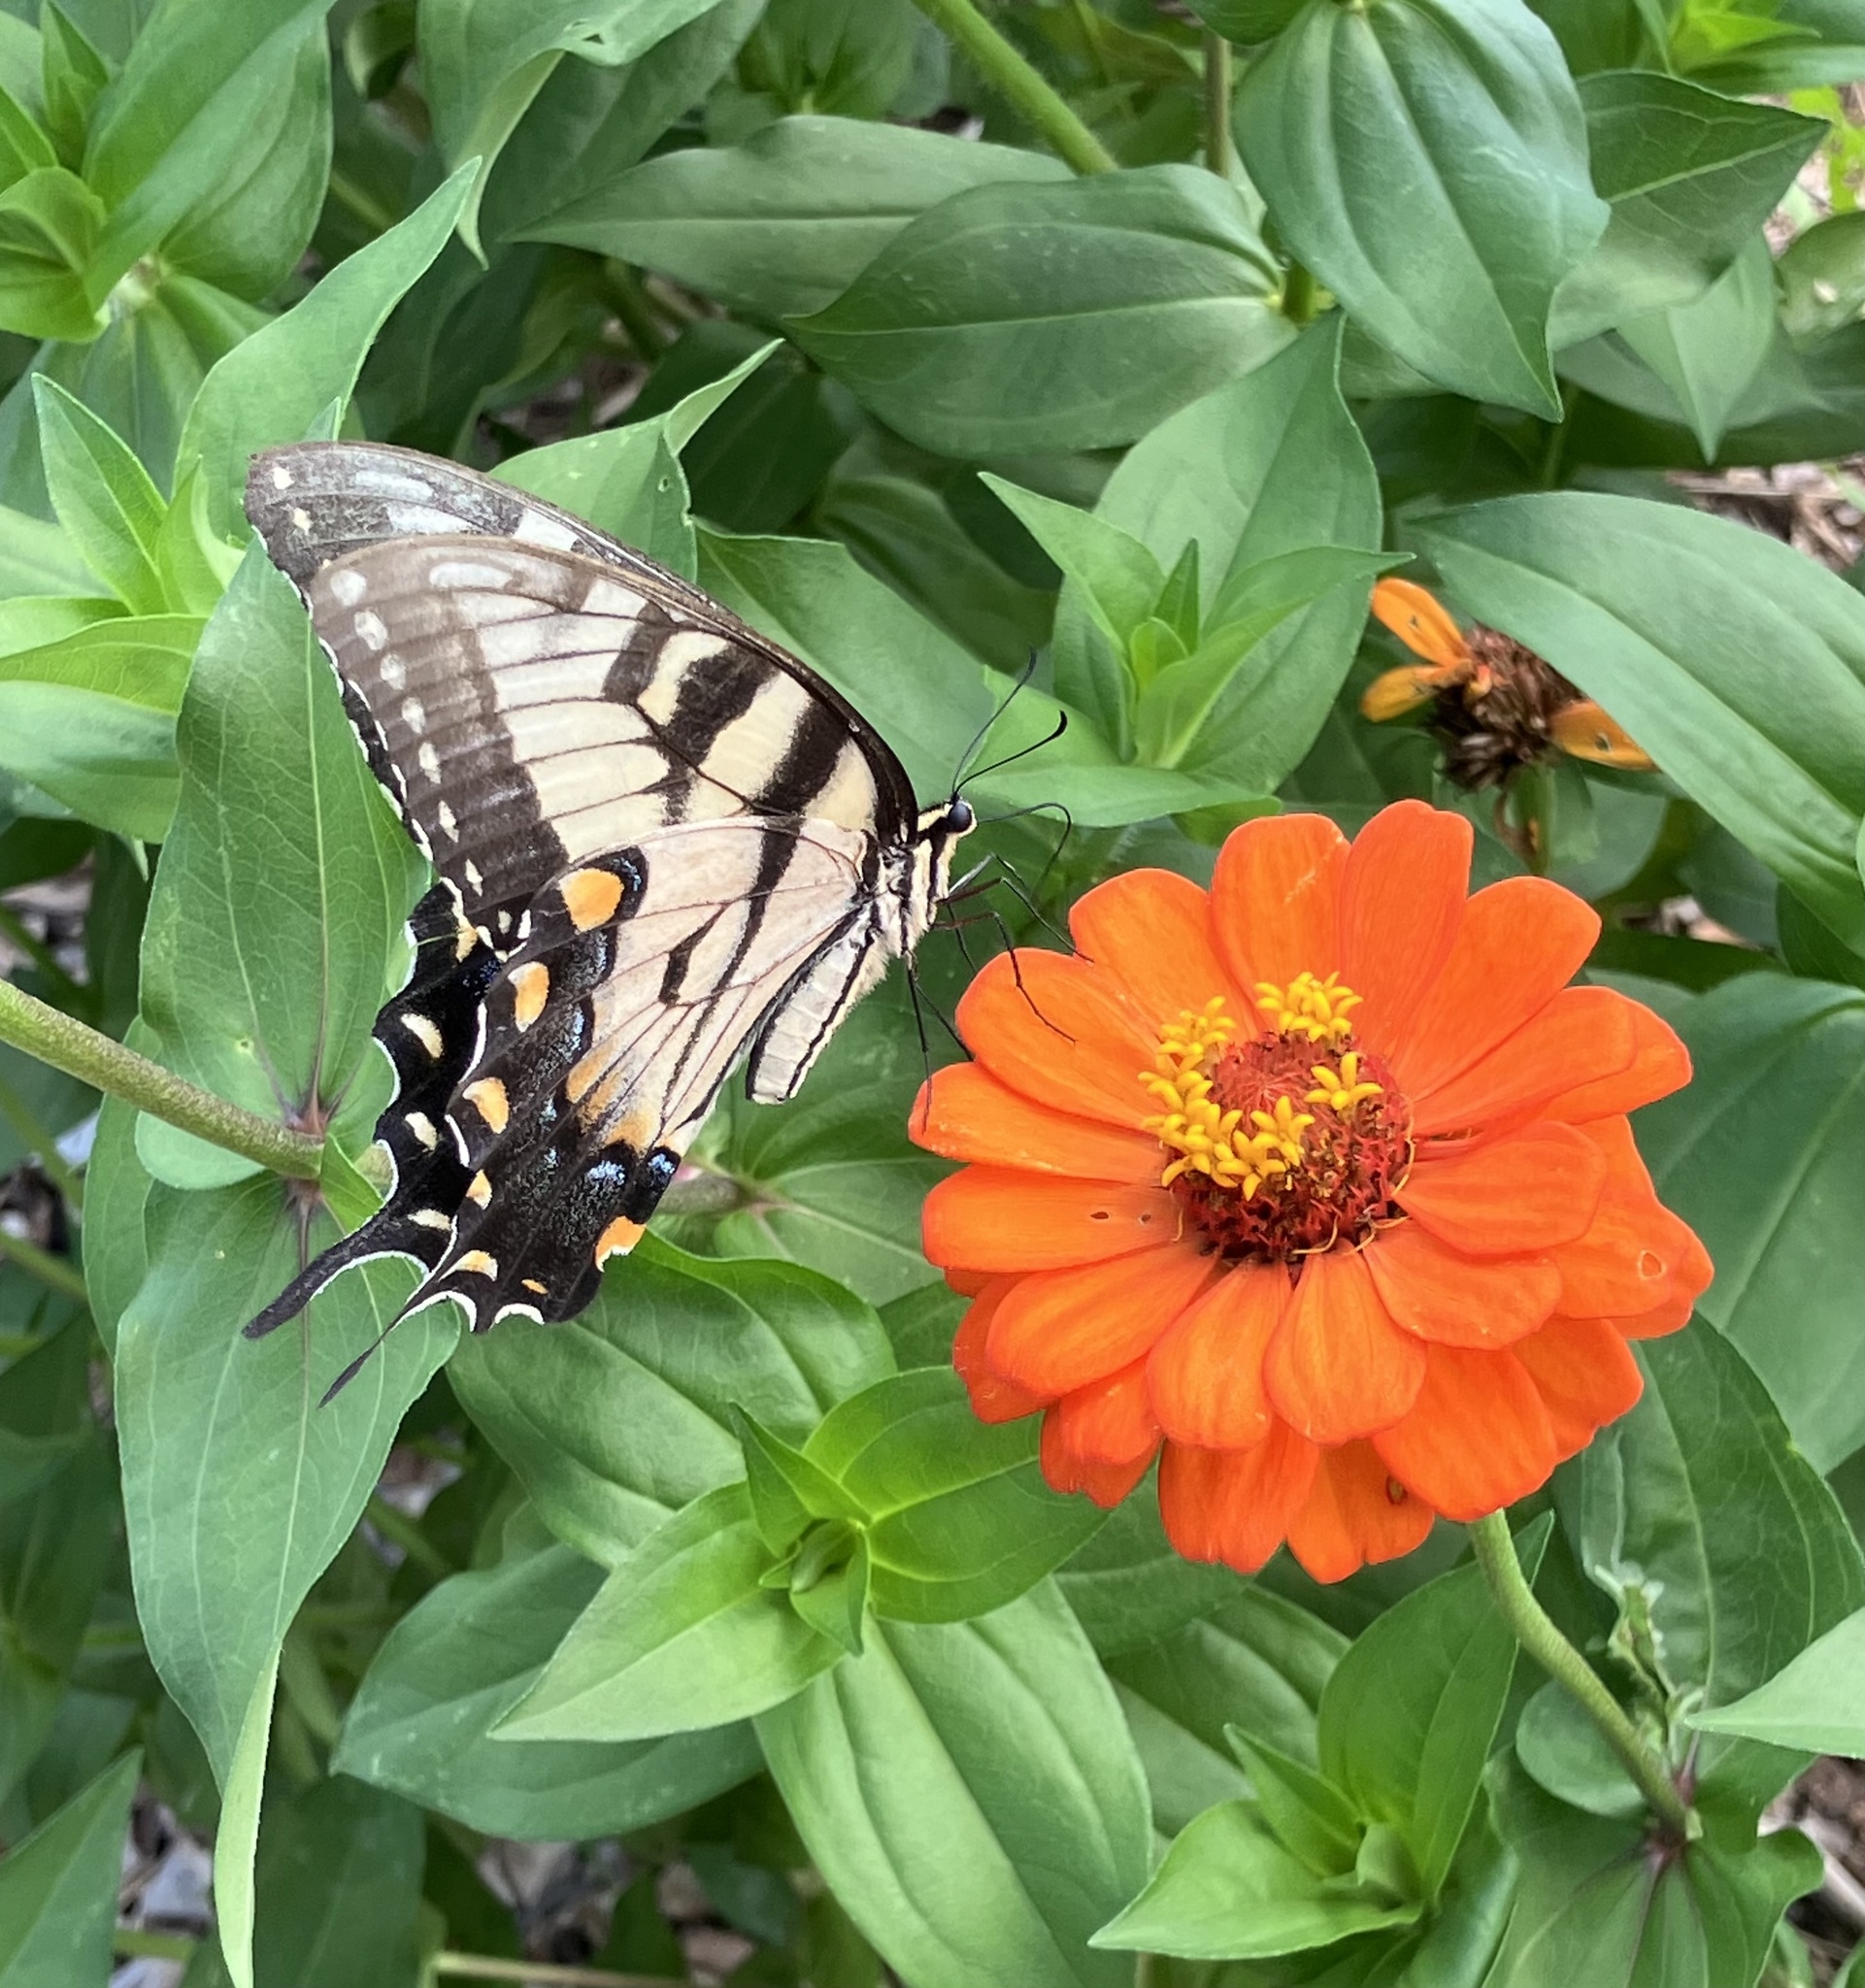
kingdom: Animalia
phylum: Arthropoda
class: Insecta
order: Lepidoptera
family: Papilionidae
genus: Papilio
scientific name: Papilio glaucus
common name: Tiger swallowtail
